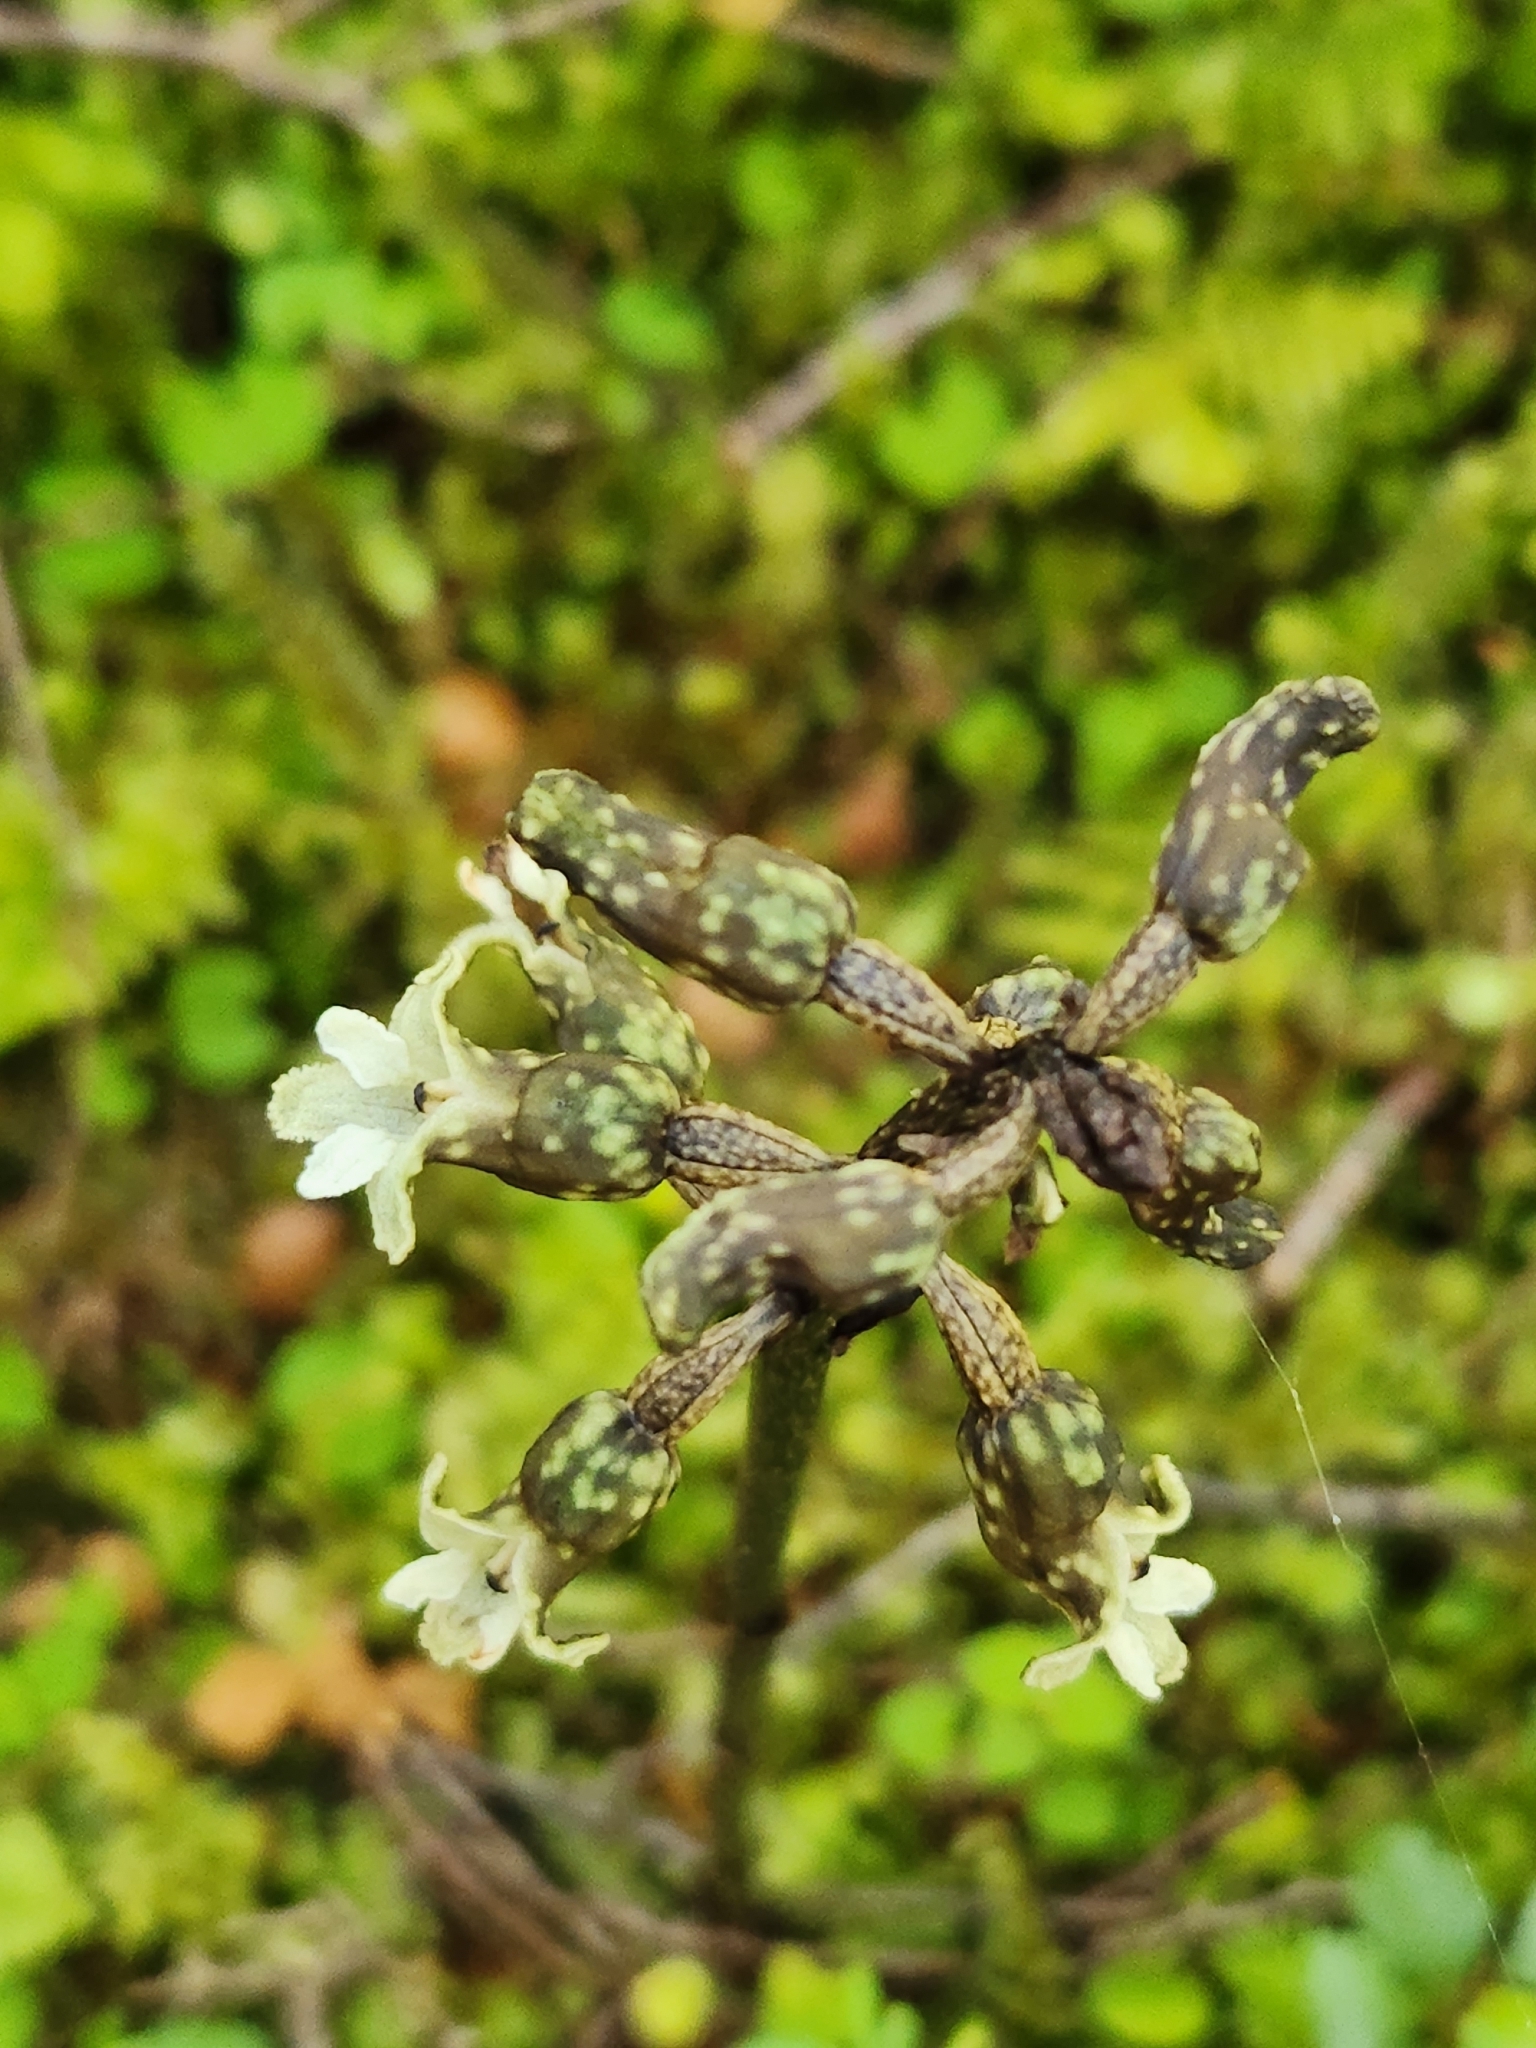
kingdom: Plantae
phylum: Tracheophyta
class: Liliopsida
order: Asparagales
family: Orchidaceae
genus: Gastrodia
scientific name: Gastrodia cunninghamii
